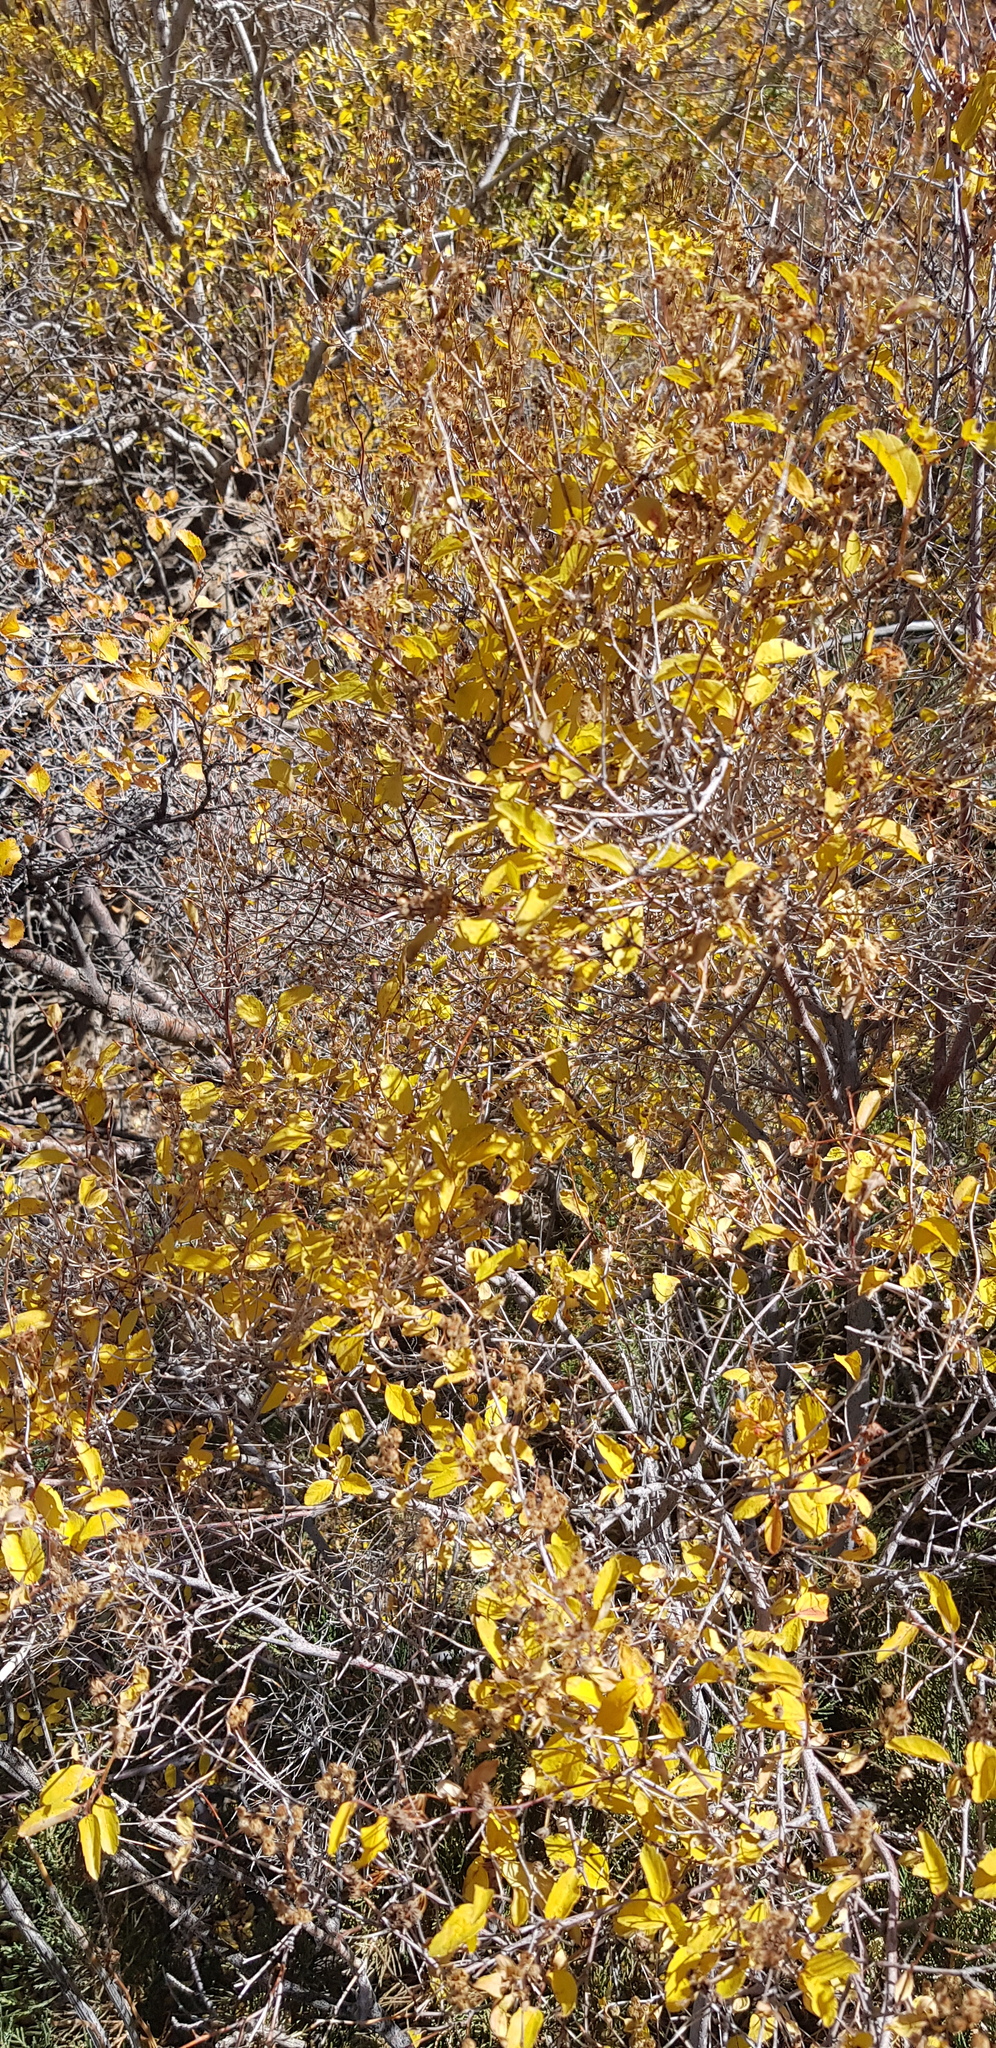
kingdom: Plantae
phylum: Tracheophyta
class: Magnoliopsida
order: Dipsacales
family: Caprifoliaceae
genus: Lonicera
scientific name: Lonicera hispida
